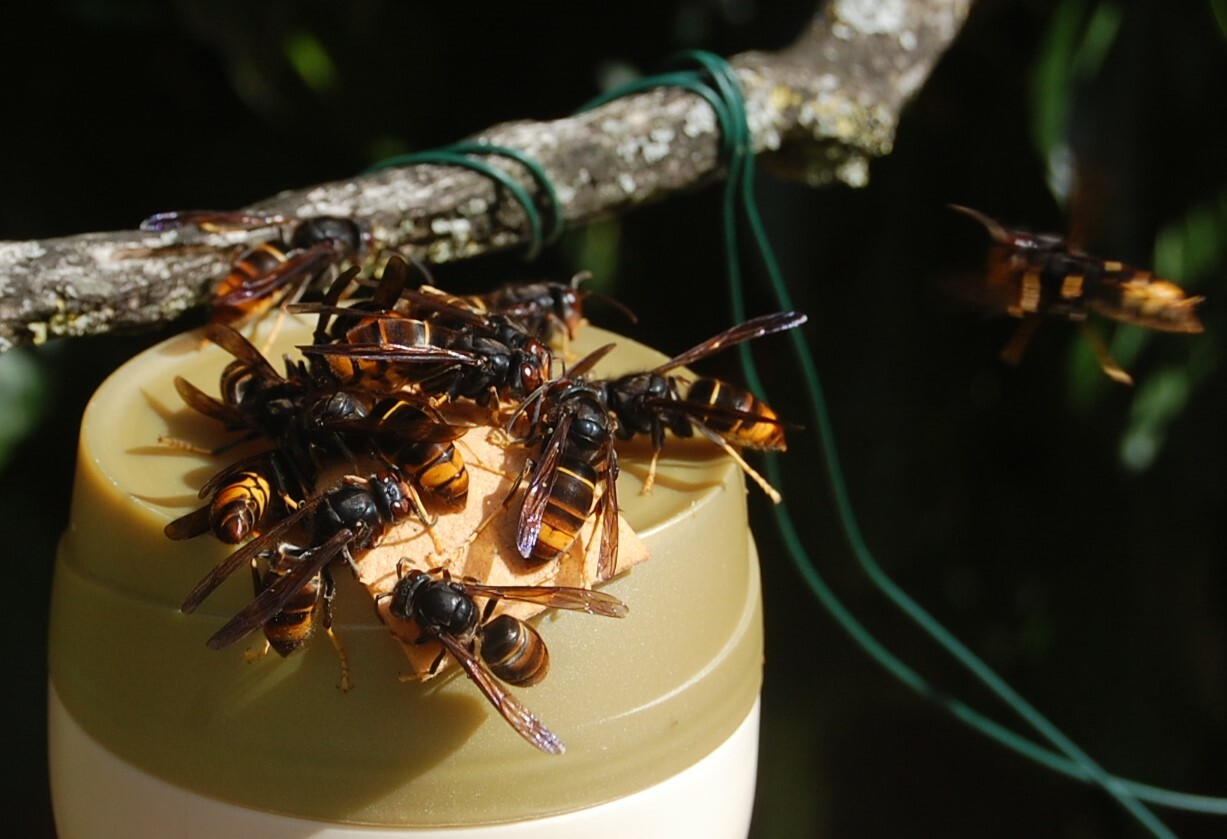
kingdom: Animalia
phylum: Arthropoda
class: Insecta
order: Hymenoptera
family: Vespidae
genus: Vespa
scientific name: Vespa velutina
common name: Asian hornet
